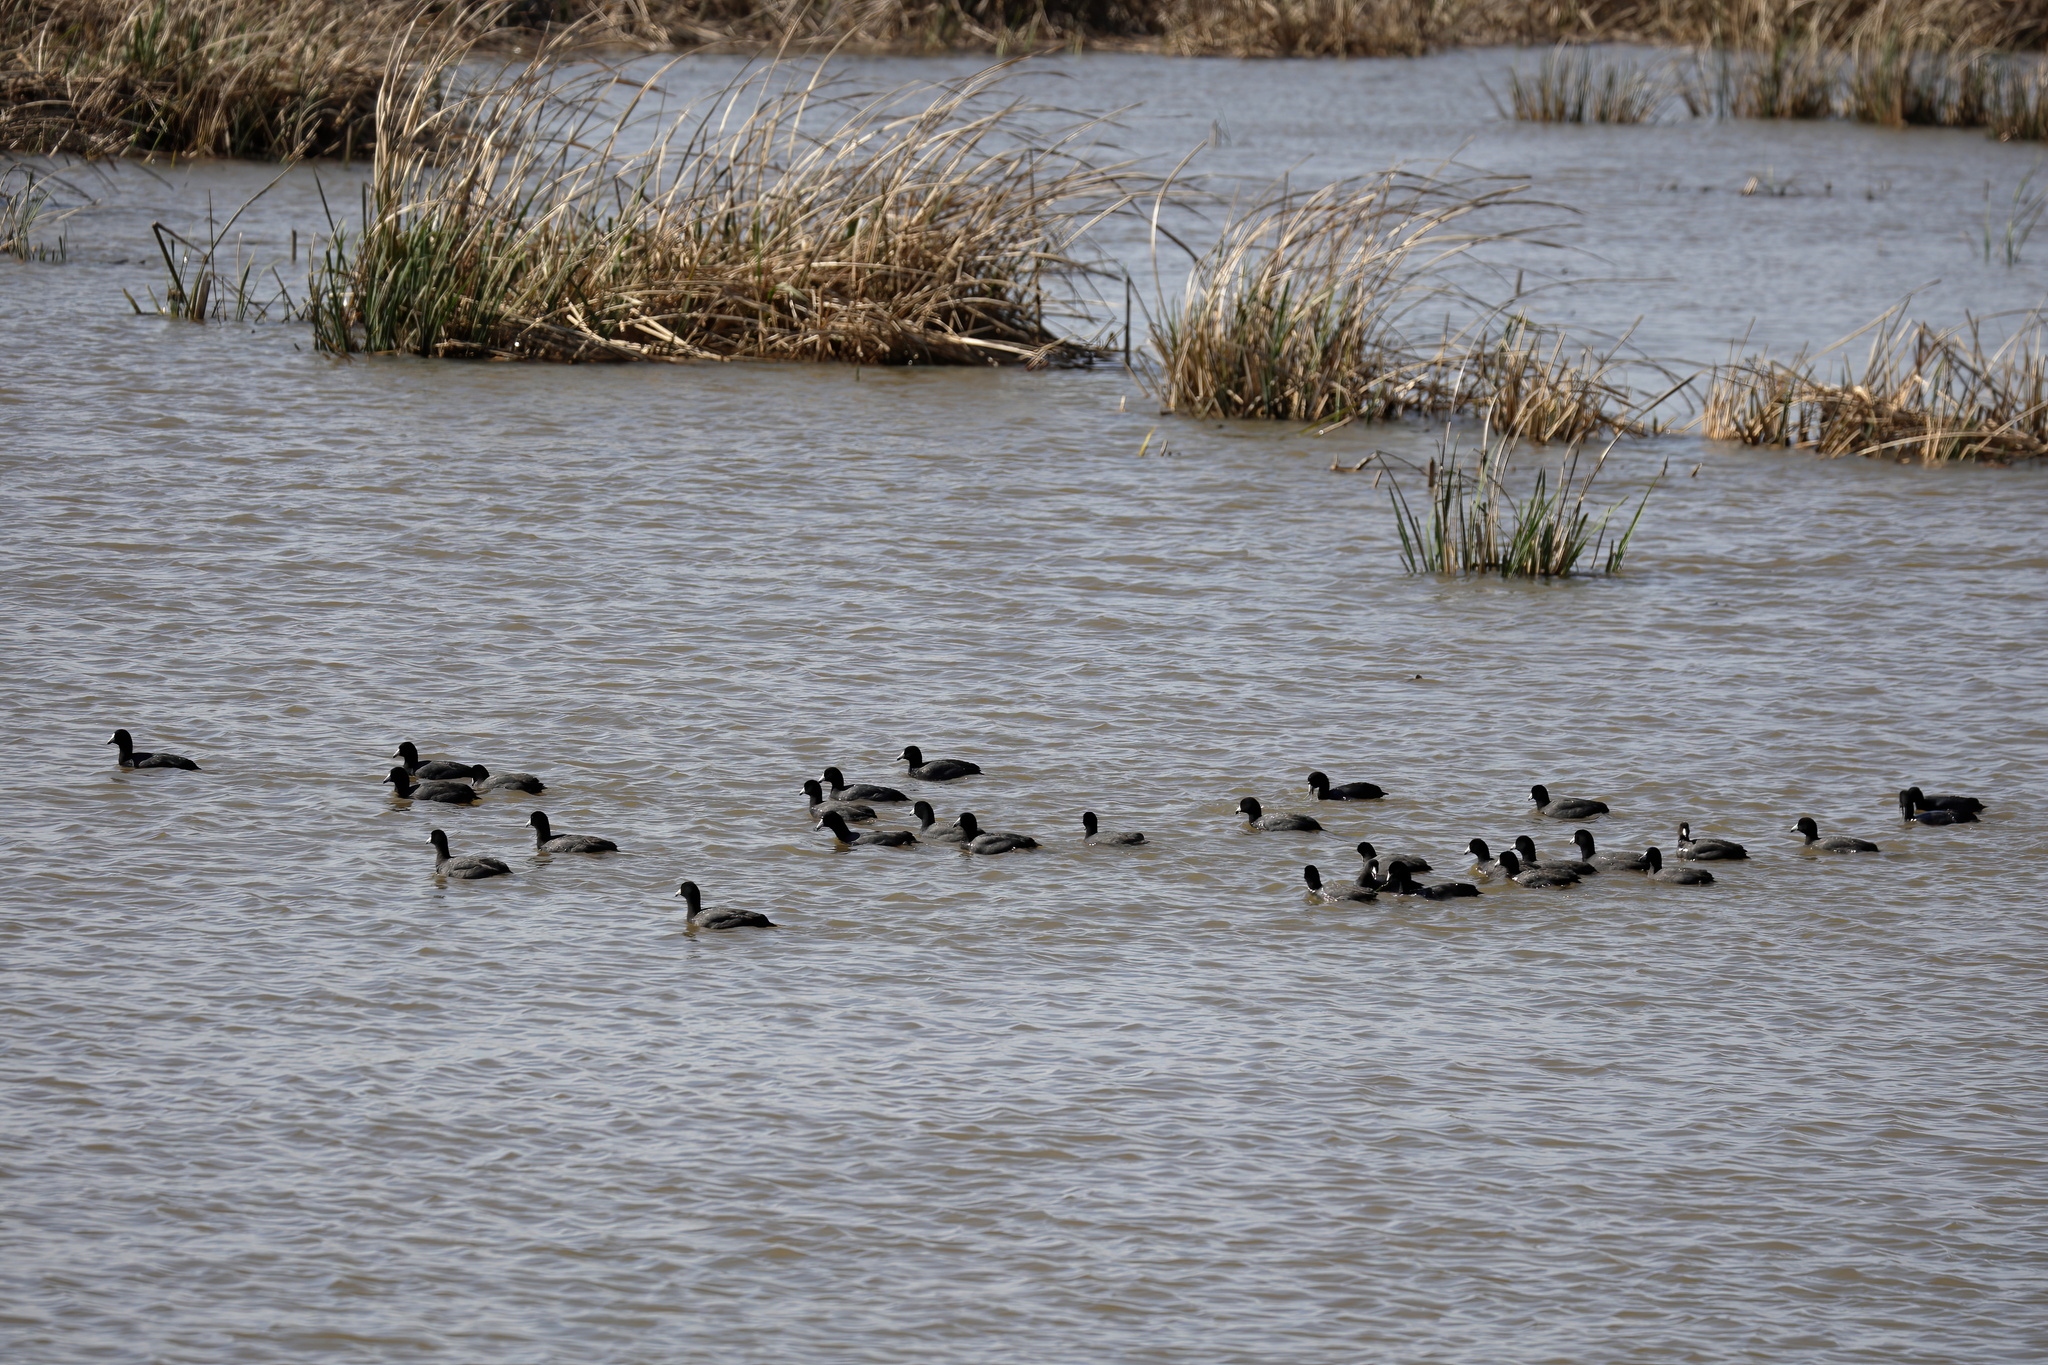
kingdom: Animalia
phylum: Chordata
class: Aves
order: Gruiformes
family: Rallidae
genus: Fulica
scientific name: Fulica americana
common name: American coot
